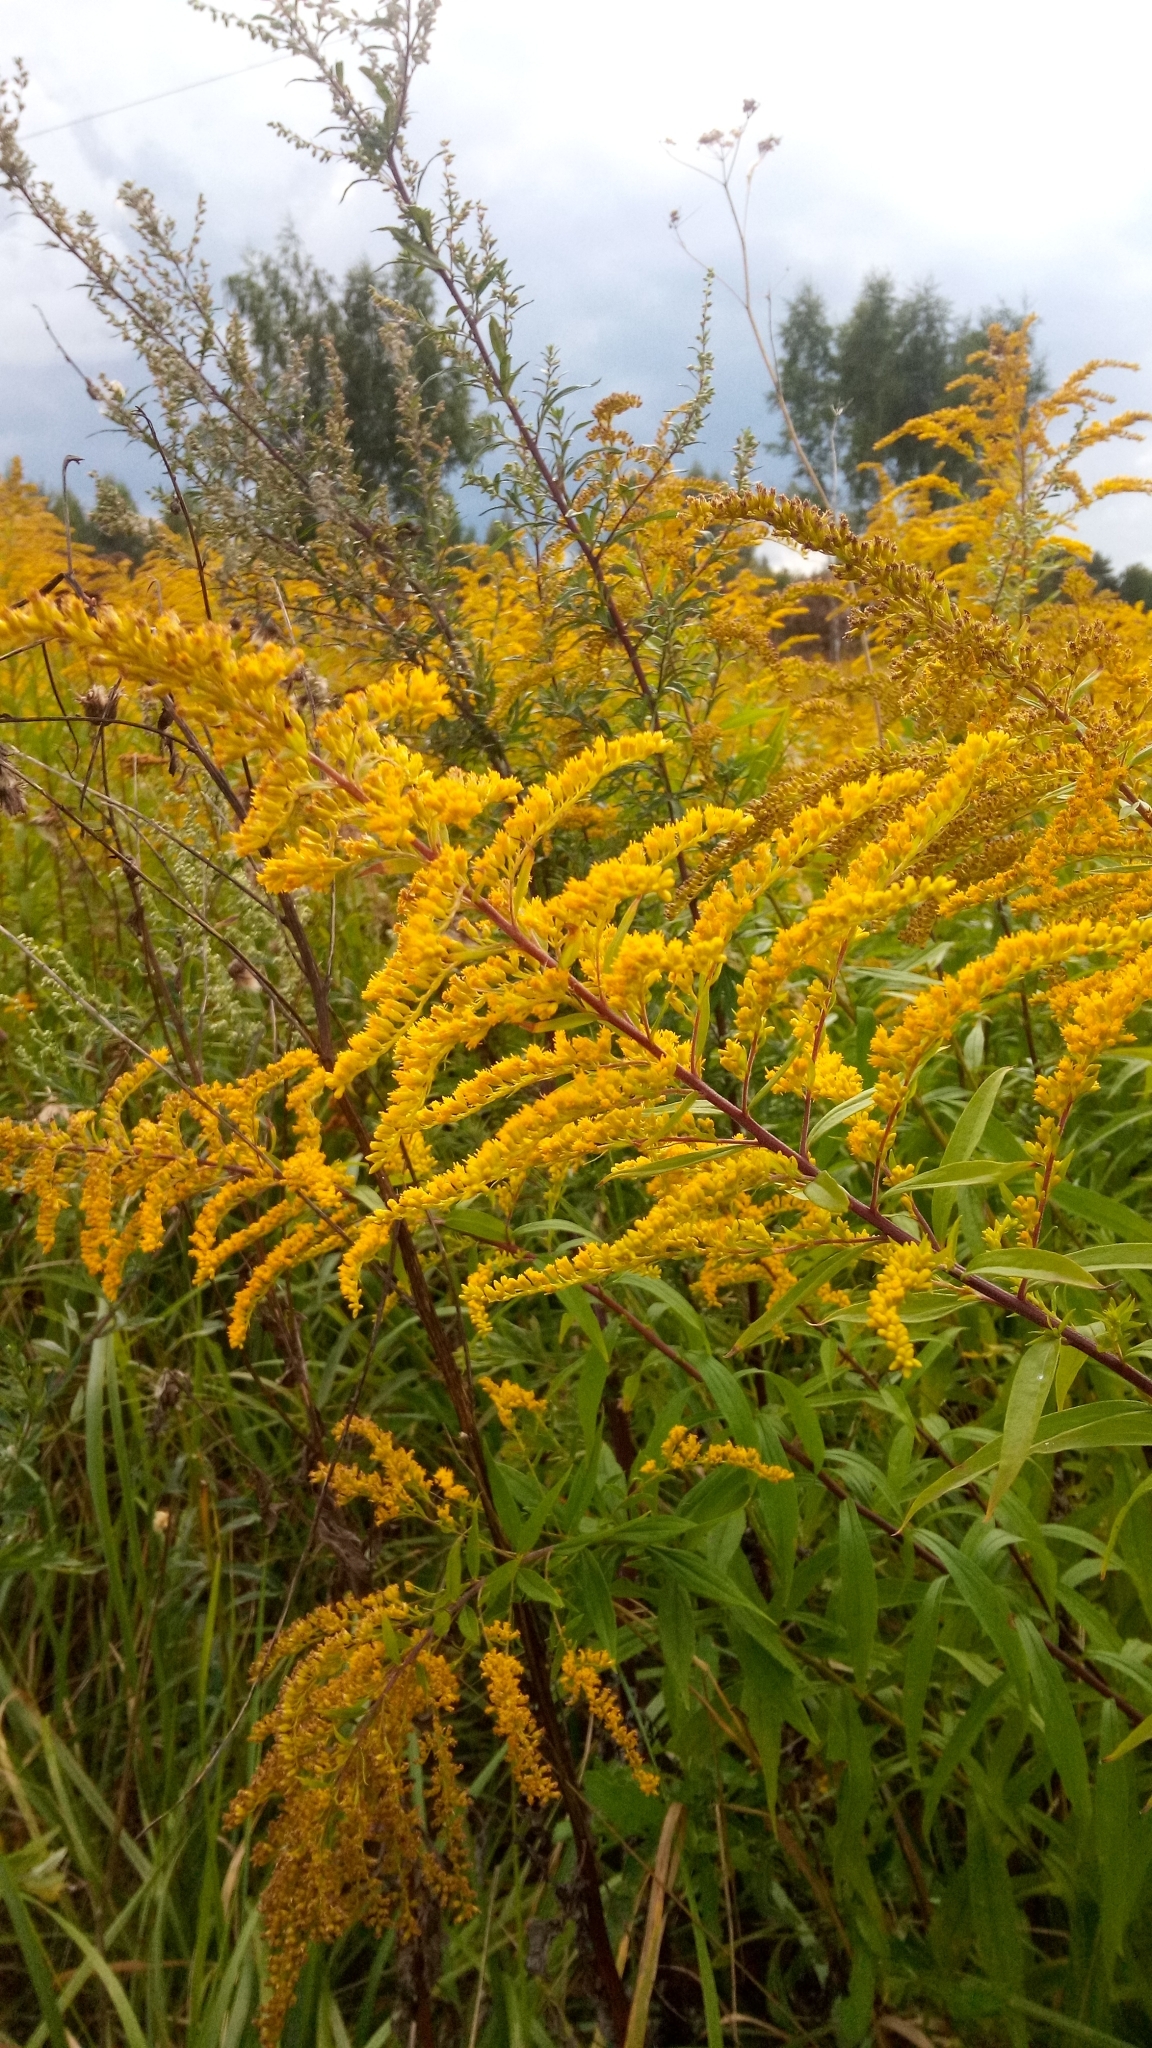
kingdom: Plantae
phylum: Tracheophyta
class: Magnoliopsida
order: Asterales
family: Asteraceae
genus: Solidago
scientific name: Solidago canadensis
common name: Canada goldenrod
